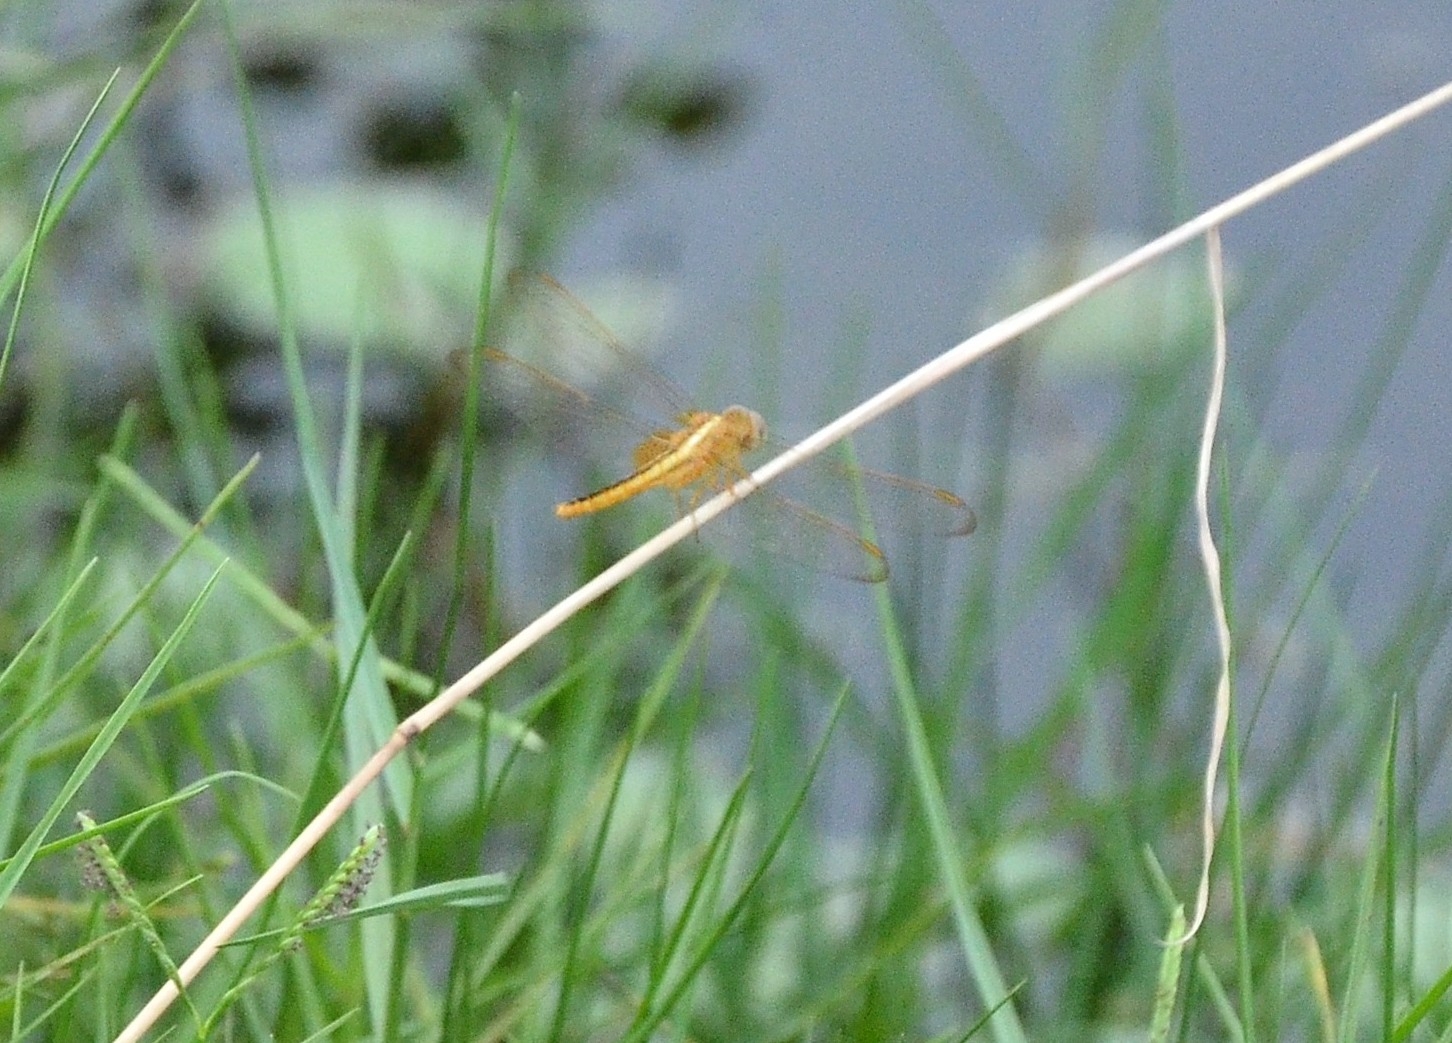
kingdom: Animalia
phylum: Arthropoda
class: Insecta
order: Odonata
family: Libellulidae
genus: Crocothemis
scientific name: Crocothemis servilia
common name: Scarlet skimmer
